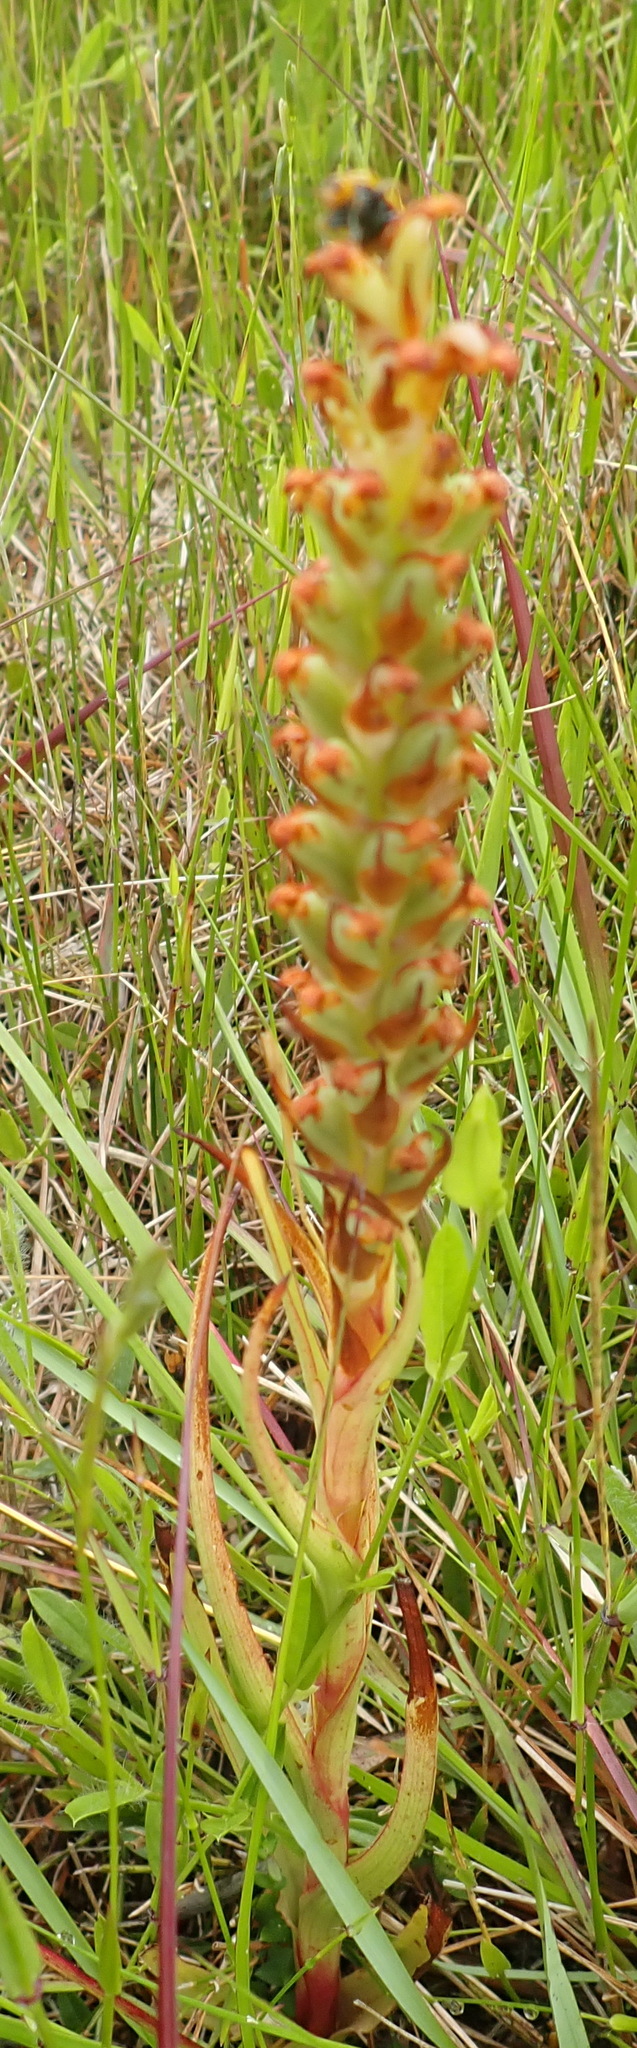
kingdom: Plantae
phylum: Tracheophyta
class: Liliopsida
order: Asparagales
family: Orchidaceae
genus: Disa
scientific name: Disa bracteata
